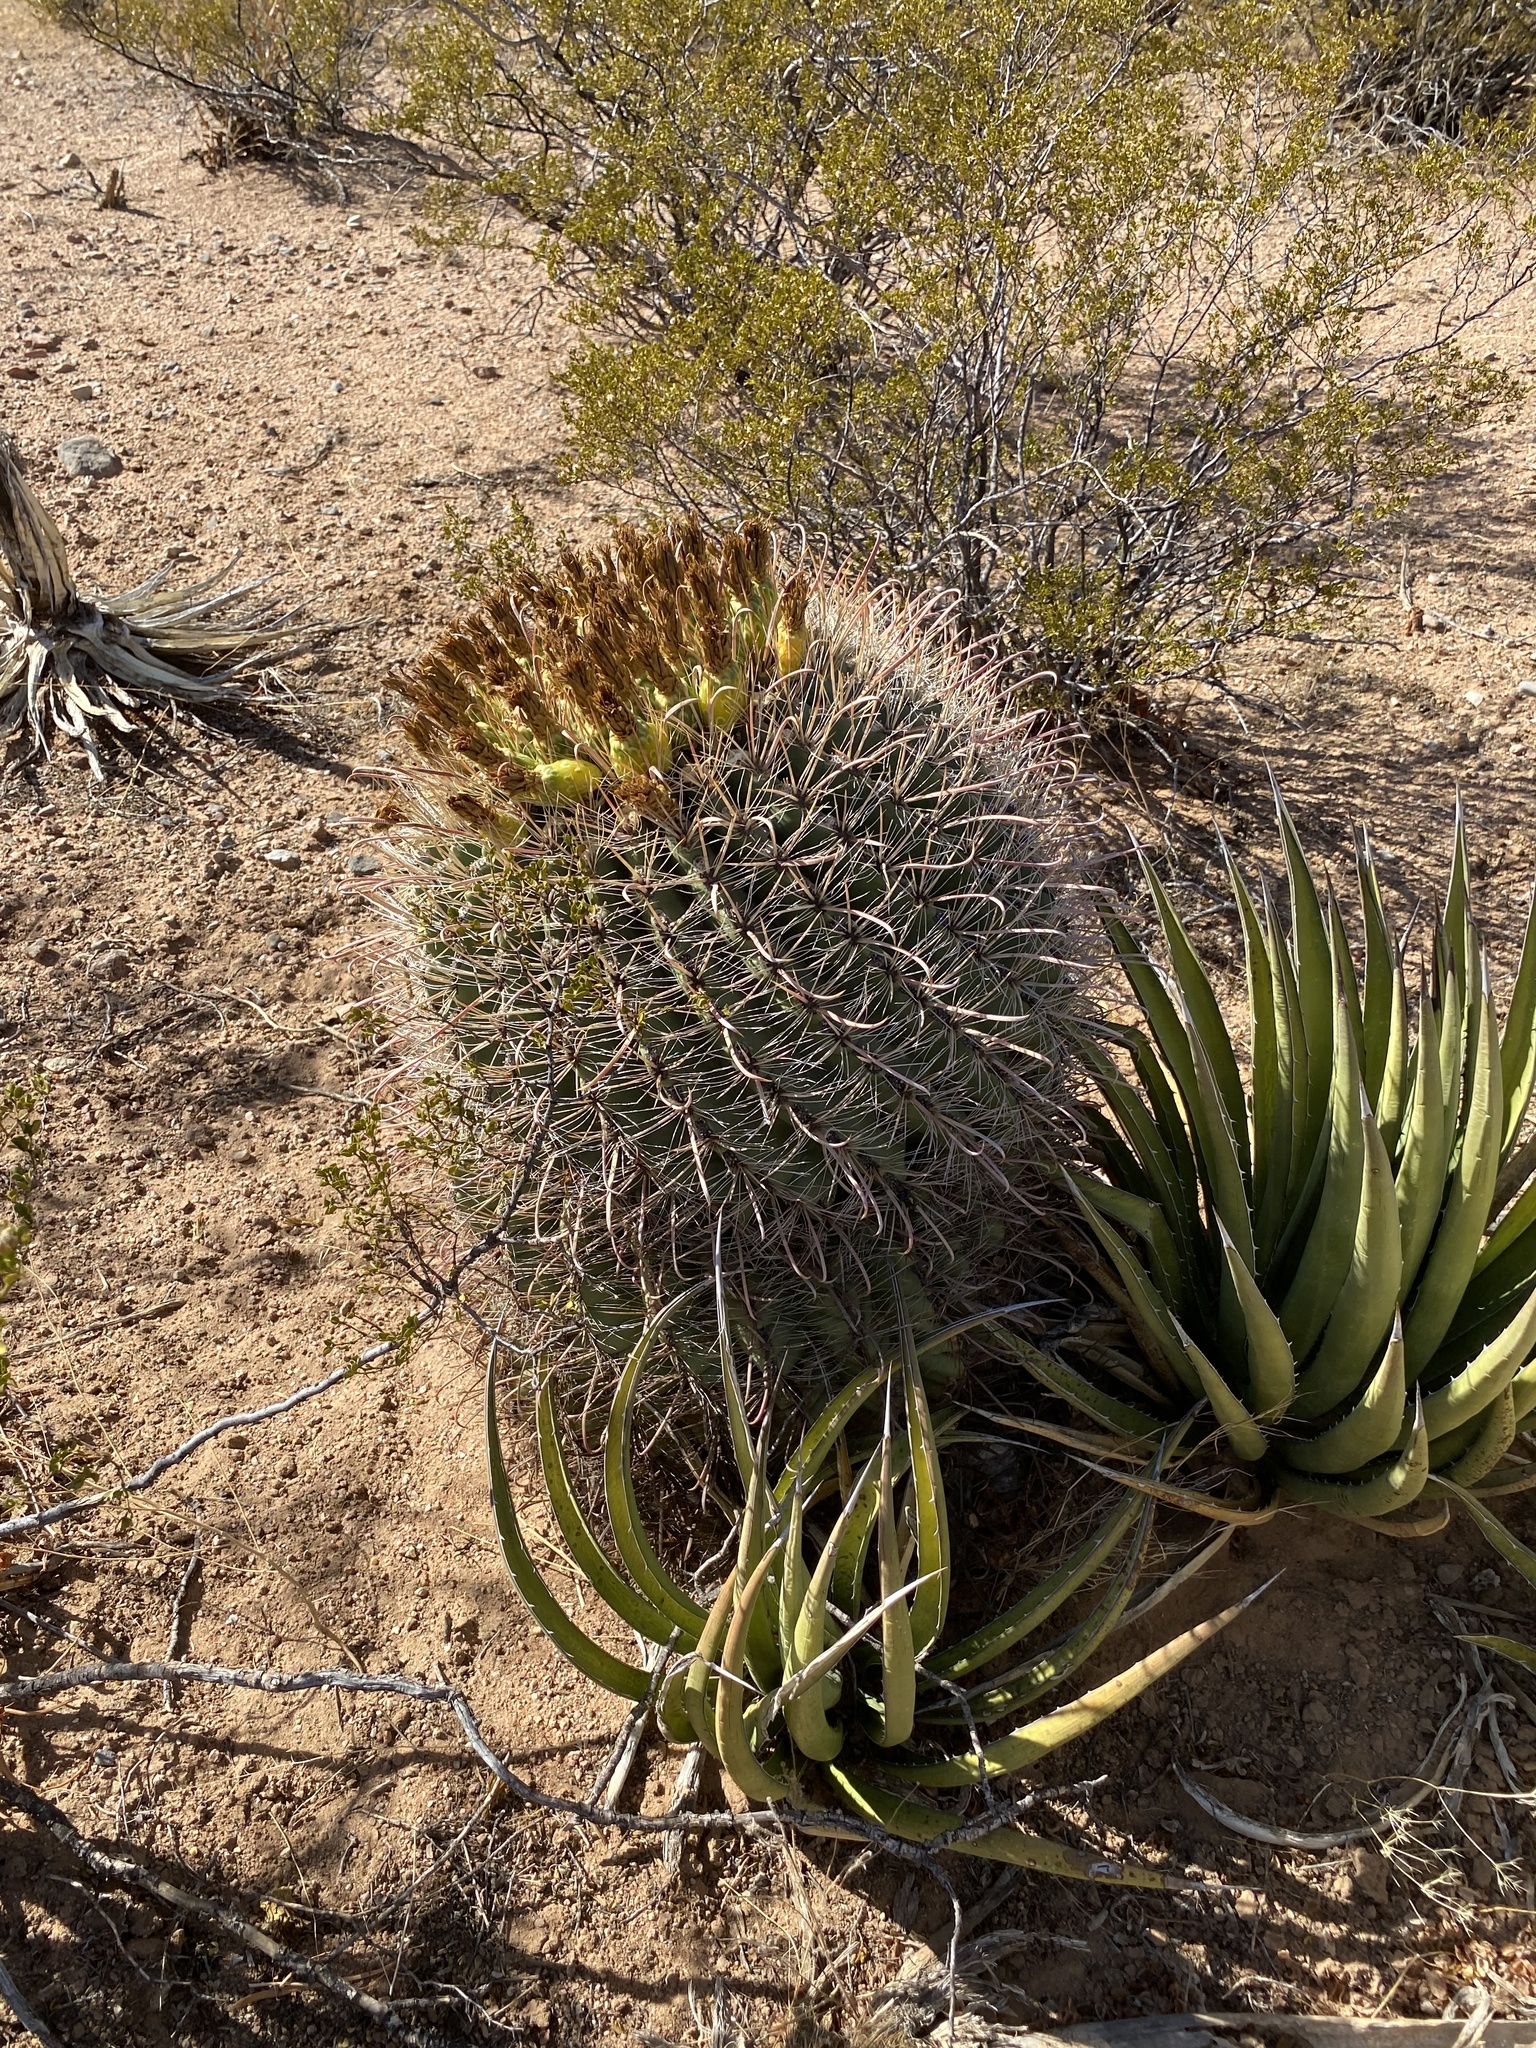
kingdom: Plantae
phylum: Tracheophyta
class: Magnoliopsida
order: Caryophyllales
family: Cactaceae
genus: Ferocactus
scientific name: Ferocactus wislizeni
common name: Candy barrel cactus
